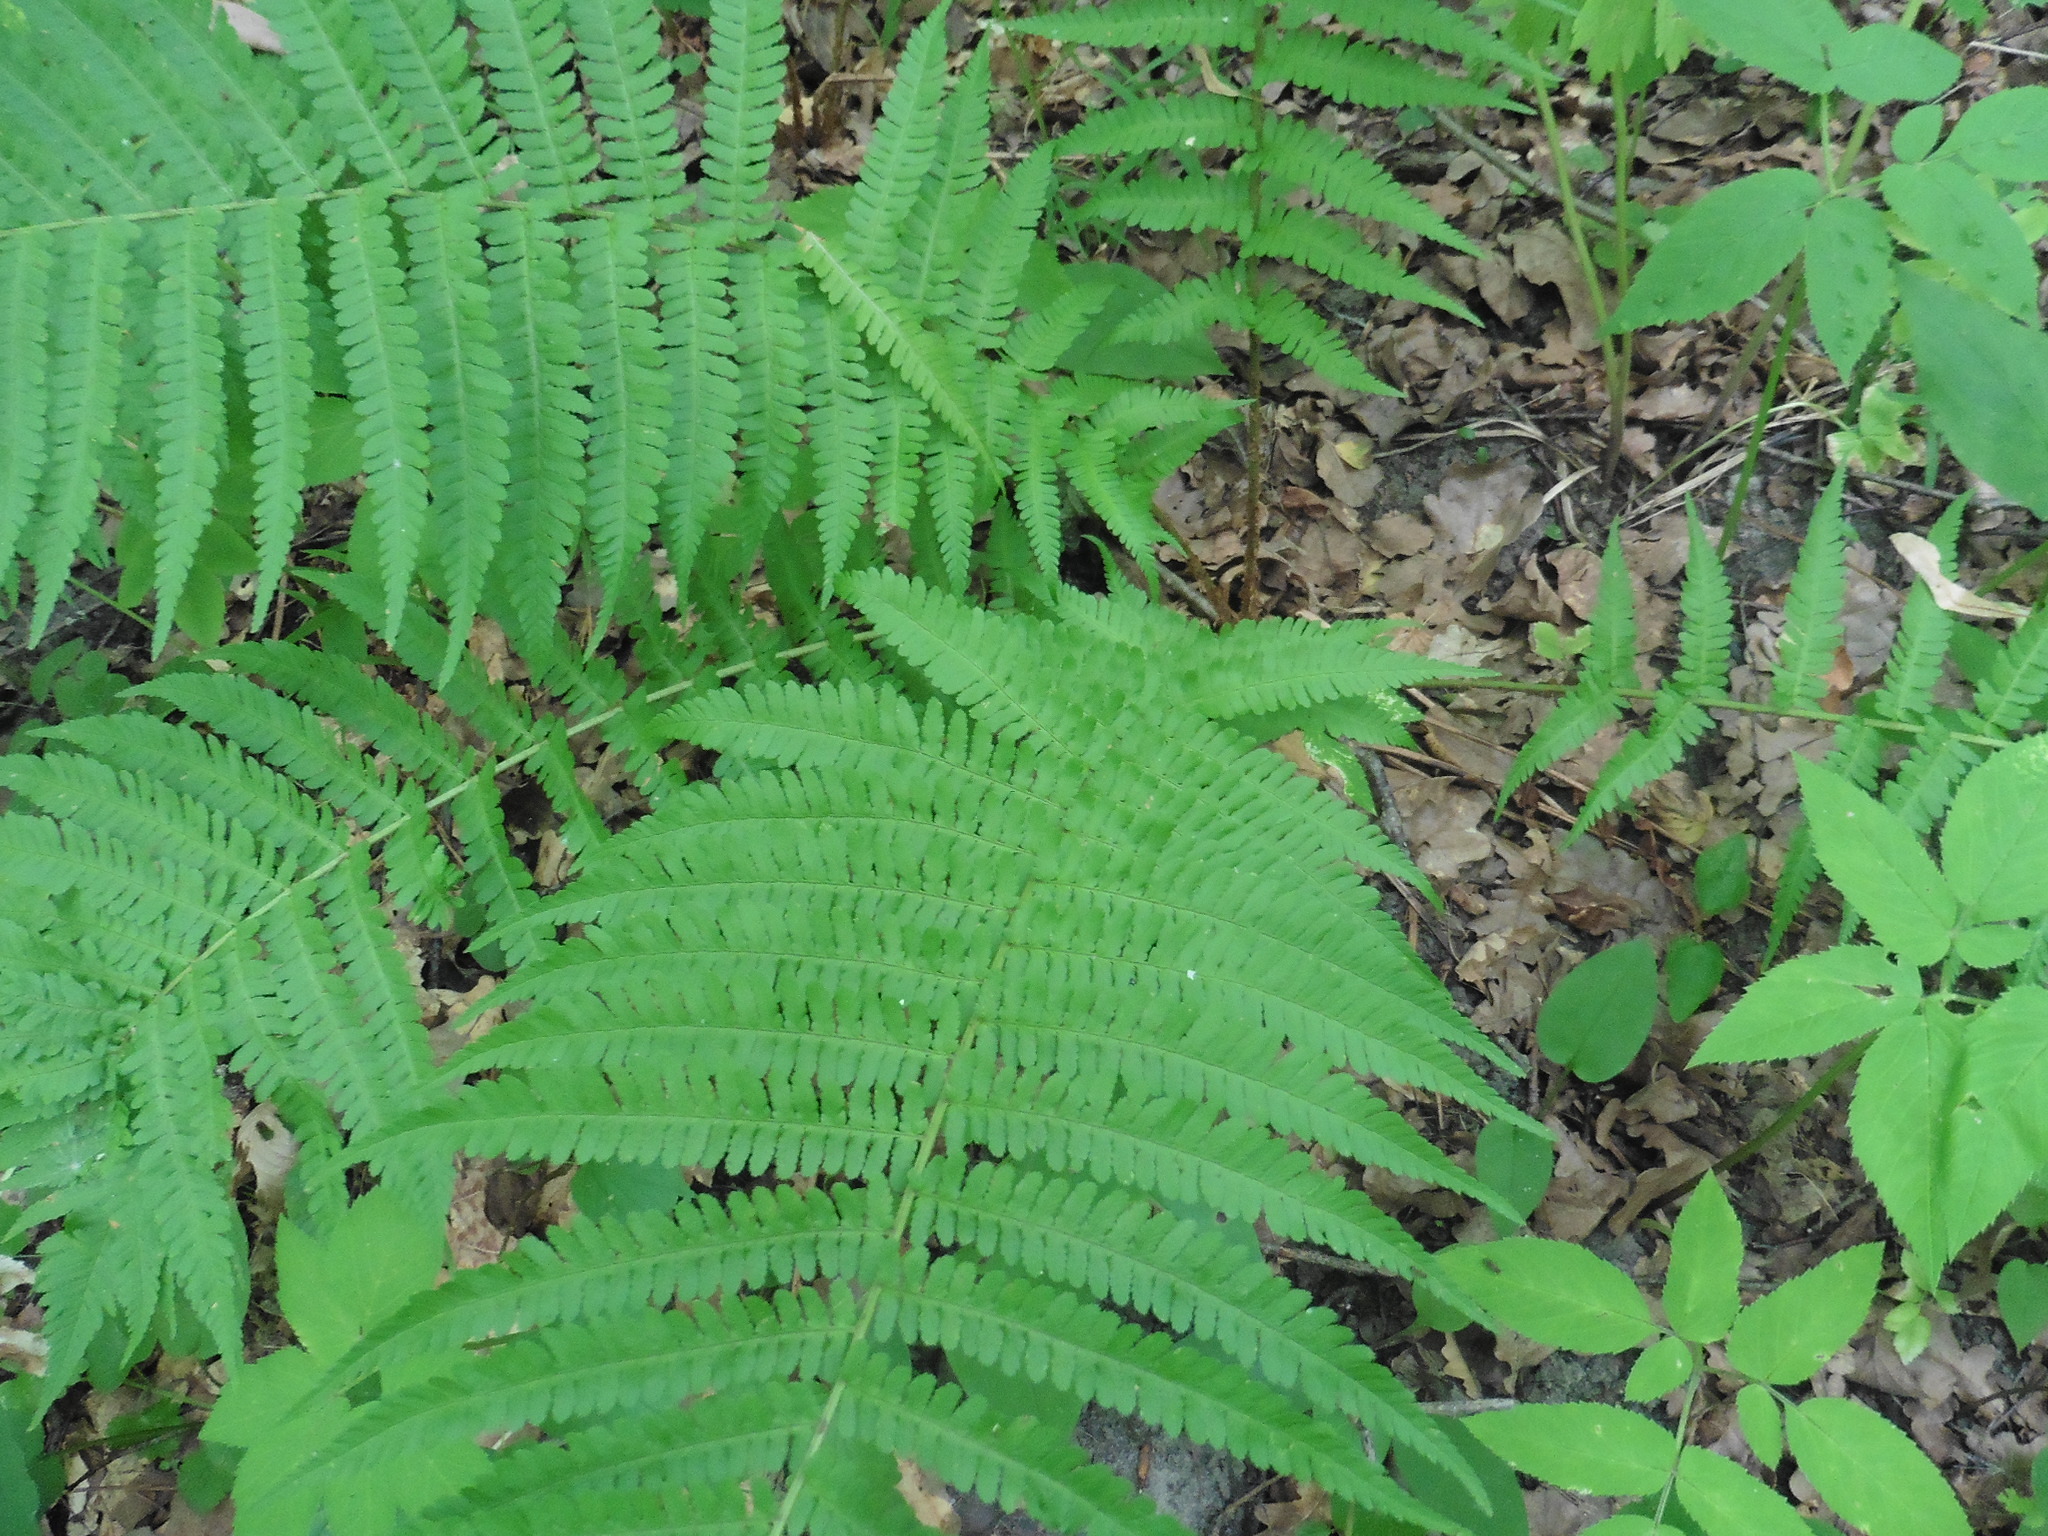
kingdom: Plantae
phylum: Tracheophyta
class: Polypodiopsida
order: Polypodiales
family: Dryopteridaceae
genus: Dryopteris
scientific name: Dryopteris filix-mas
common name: Male fern
